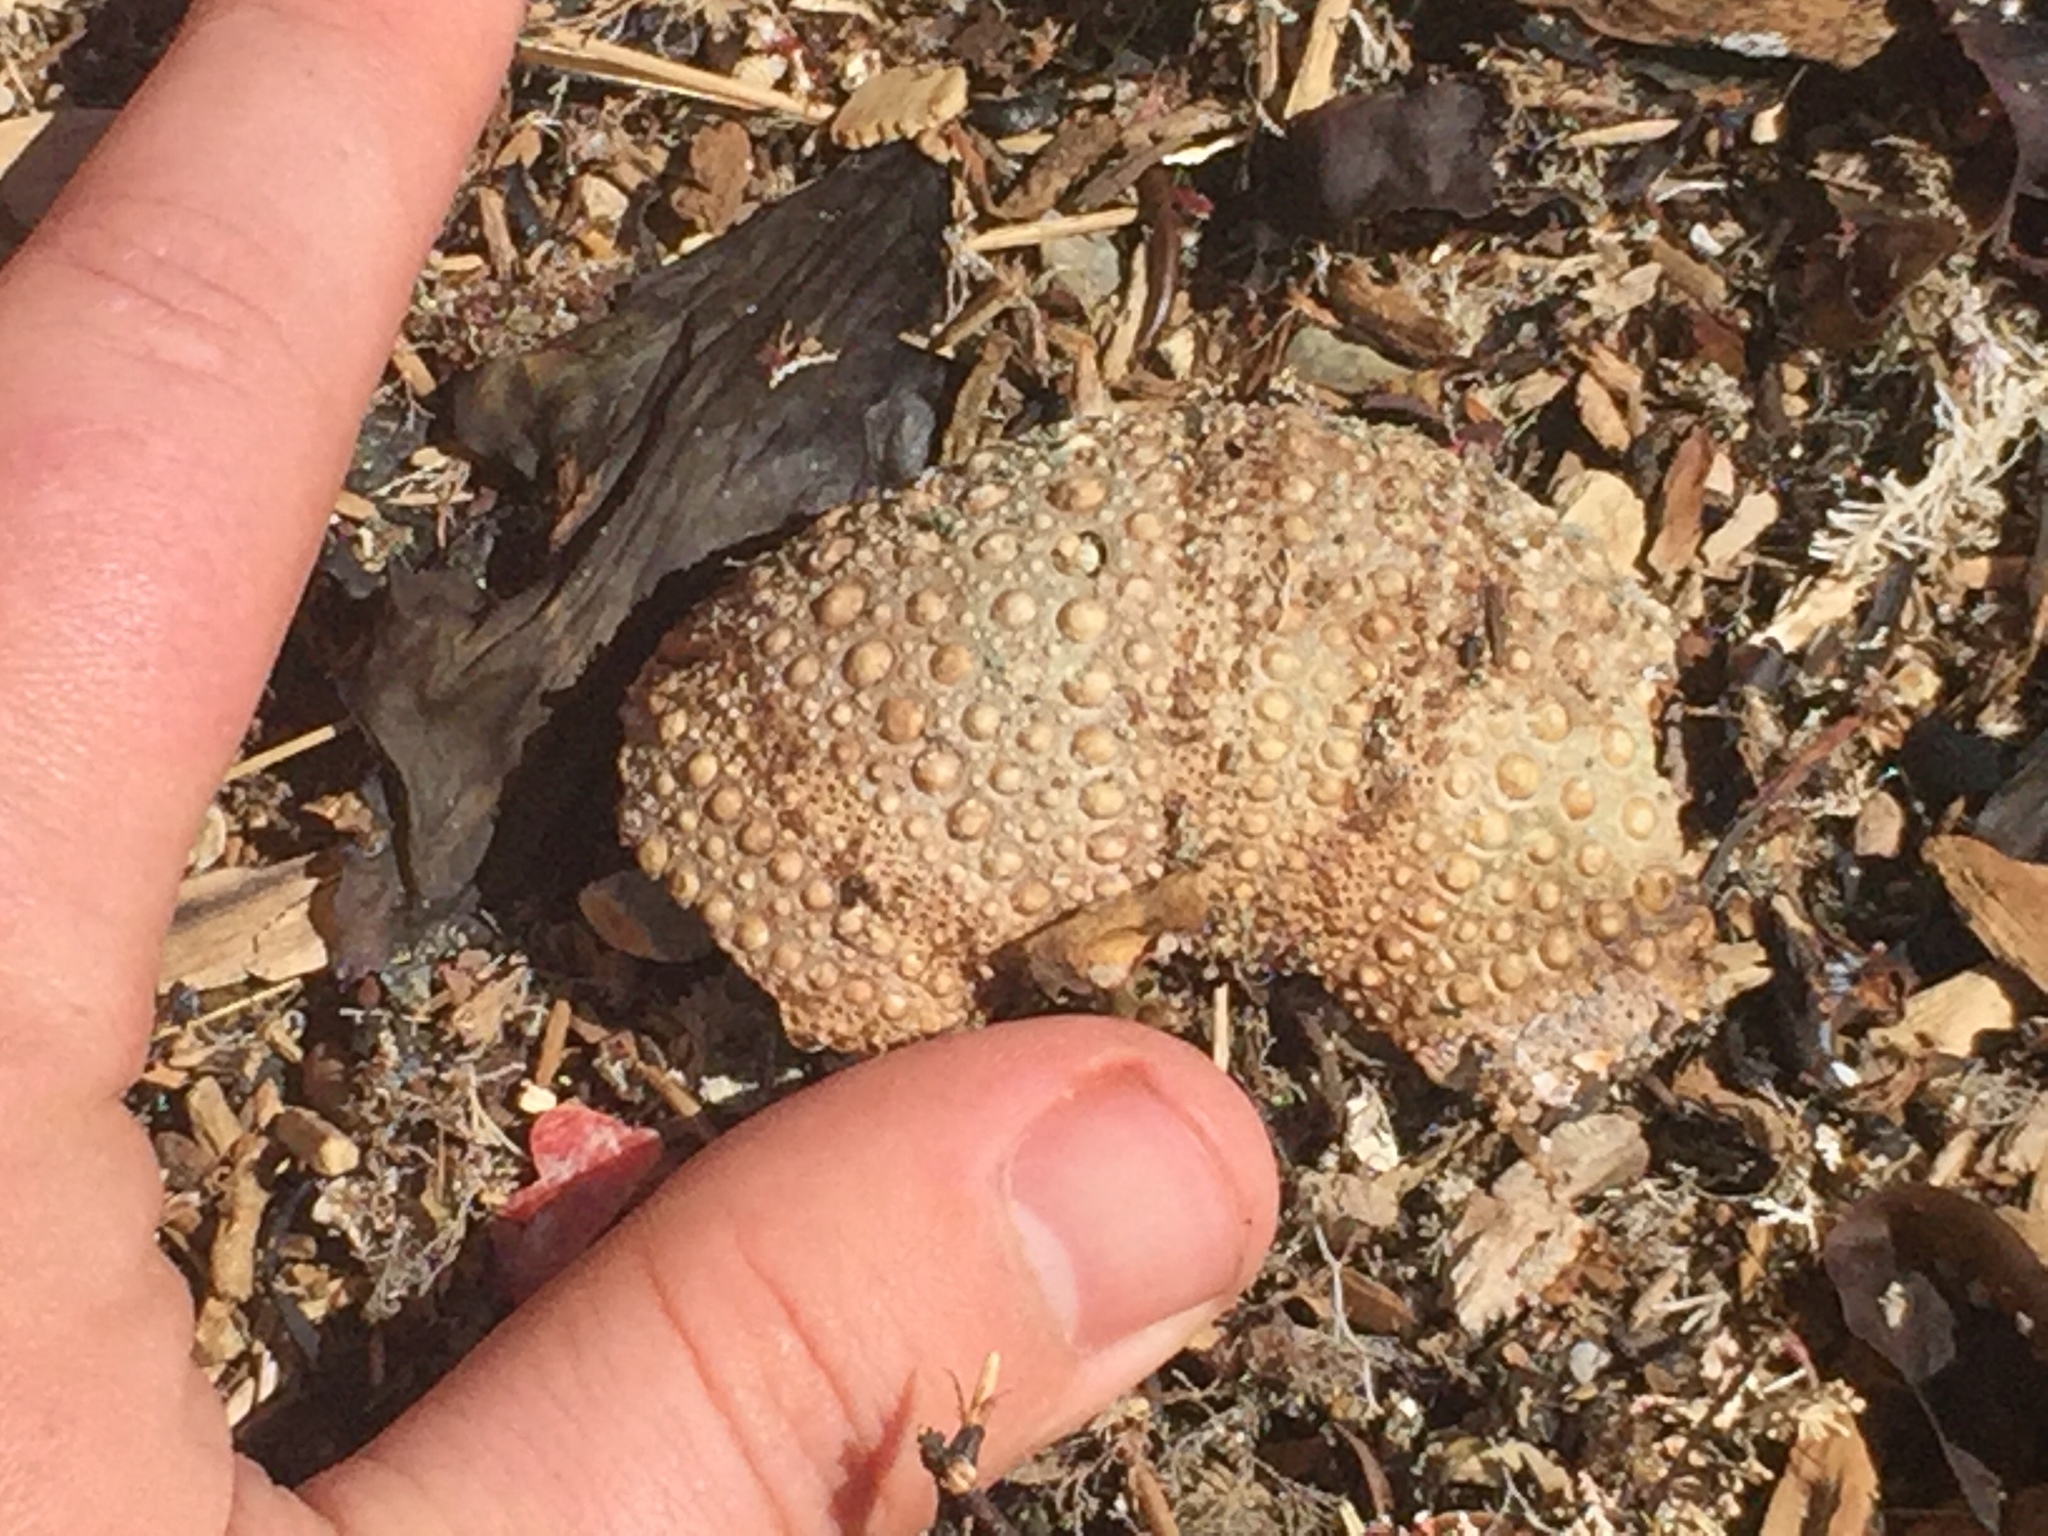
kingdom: Animalia
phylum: Echinodermata
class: Echinoidea
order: Camarodonta
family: Echinometridae
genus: Evechinus
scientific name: Evechinus chloroticus
